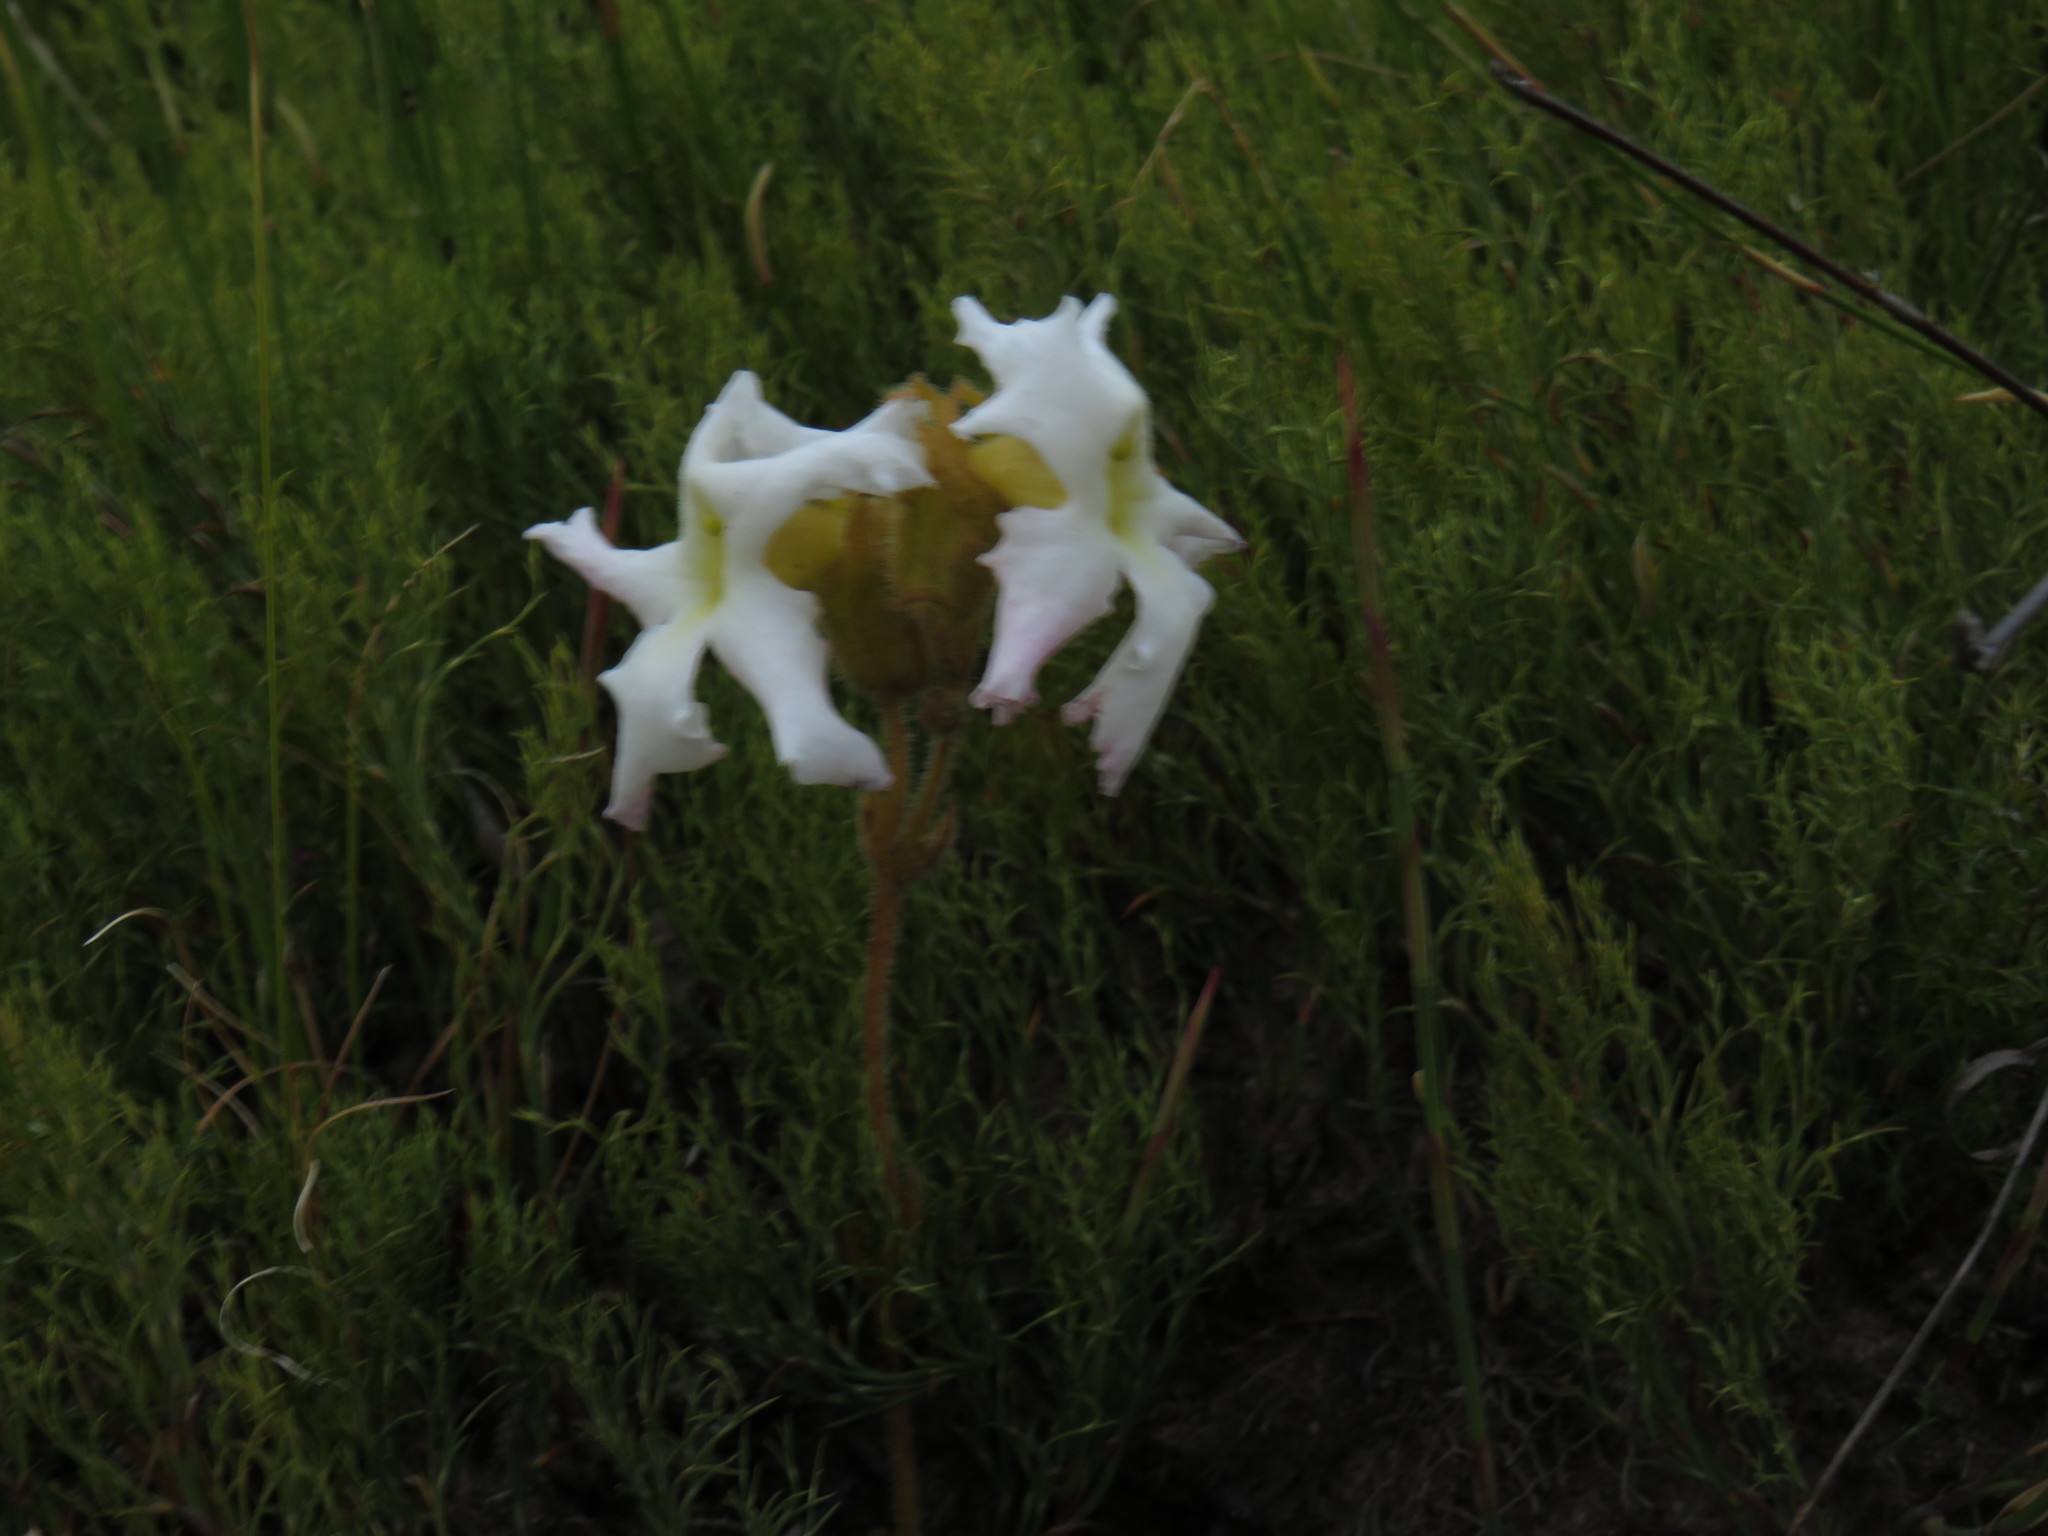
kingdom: Plantae
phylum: Tracheophyta
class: Magnoliopsida
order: Lamiales
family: Orobanchaceae
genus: Harveya
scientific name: Harveya capensis
